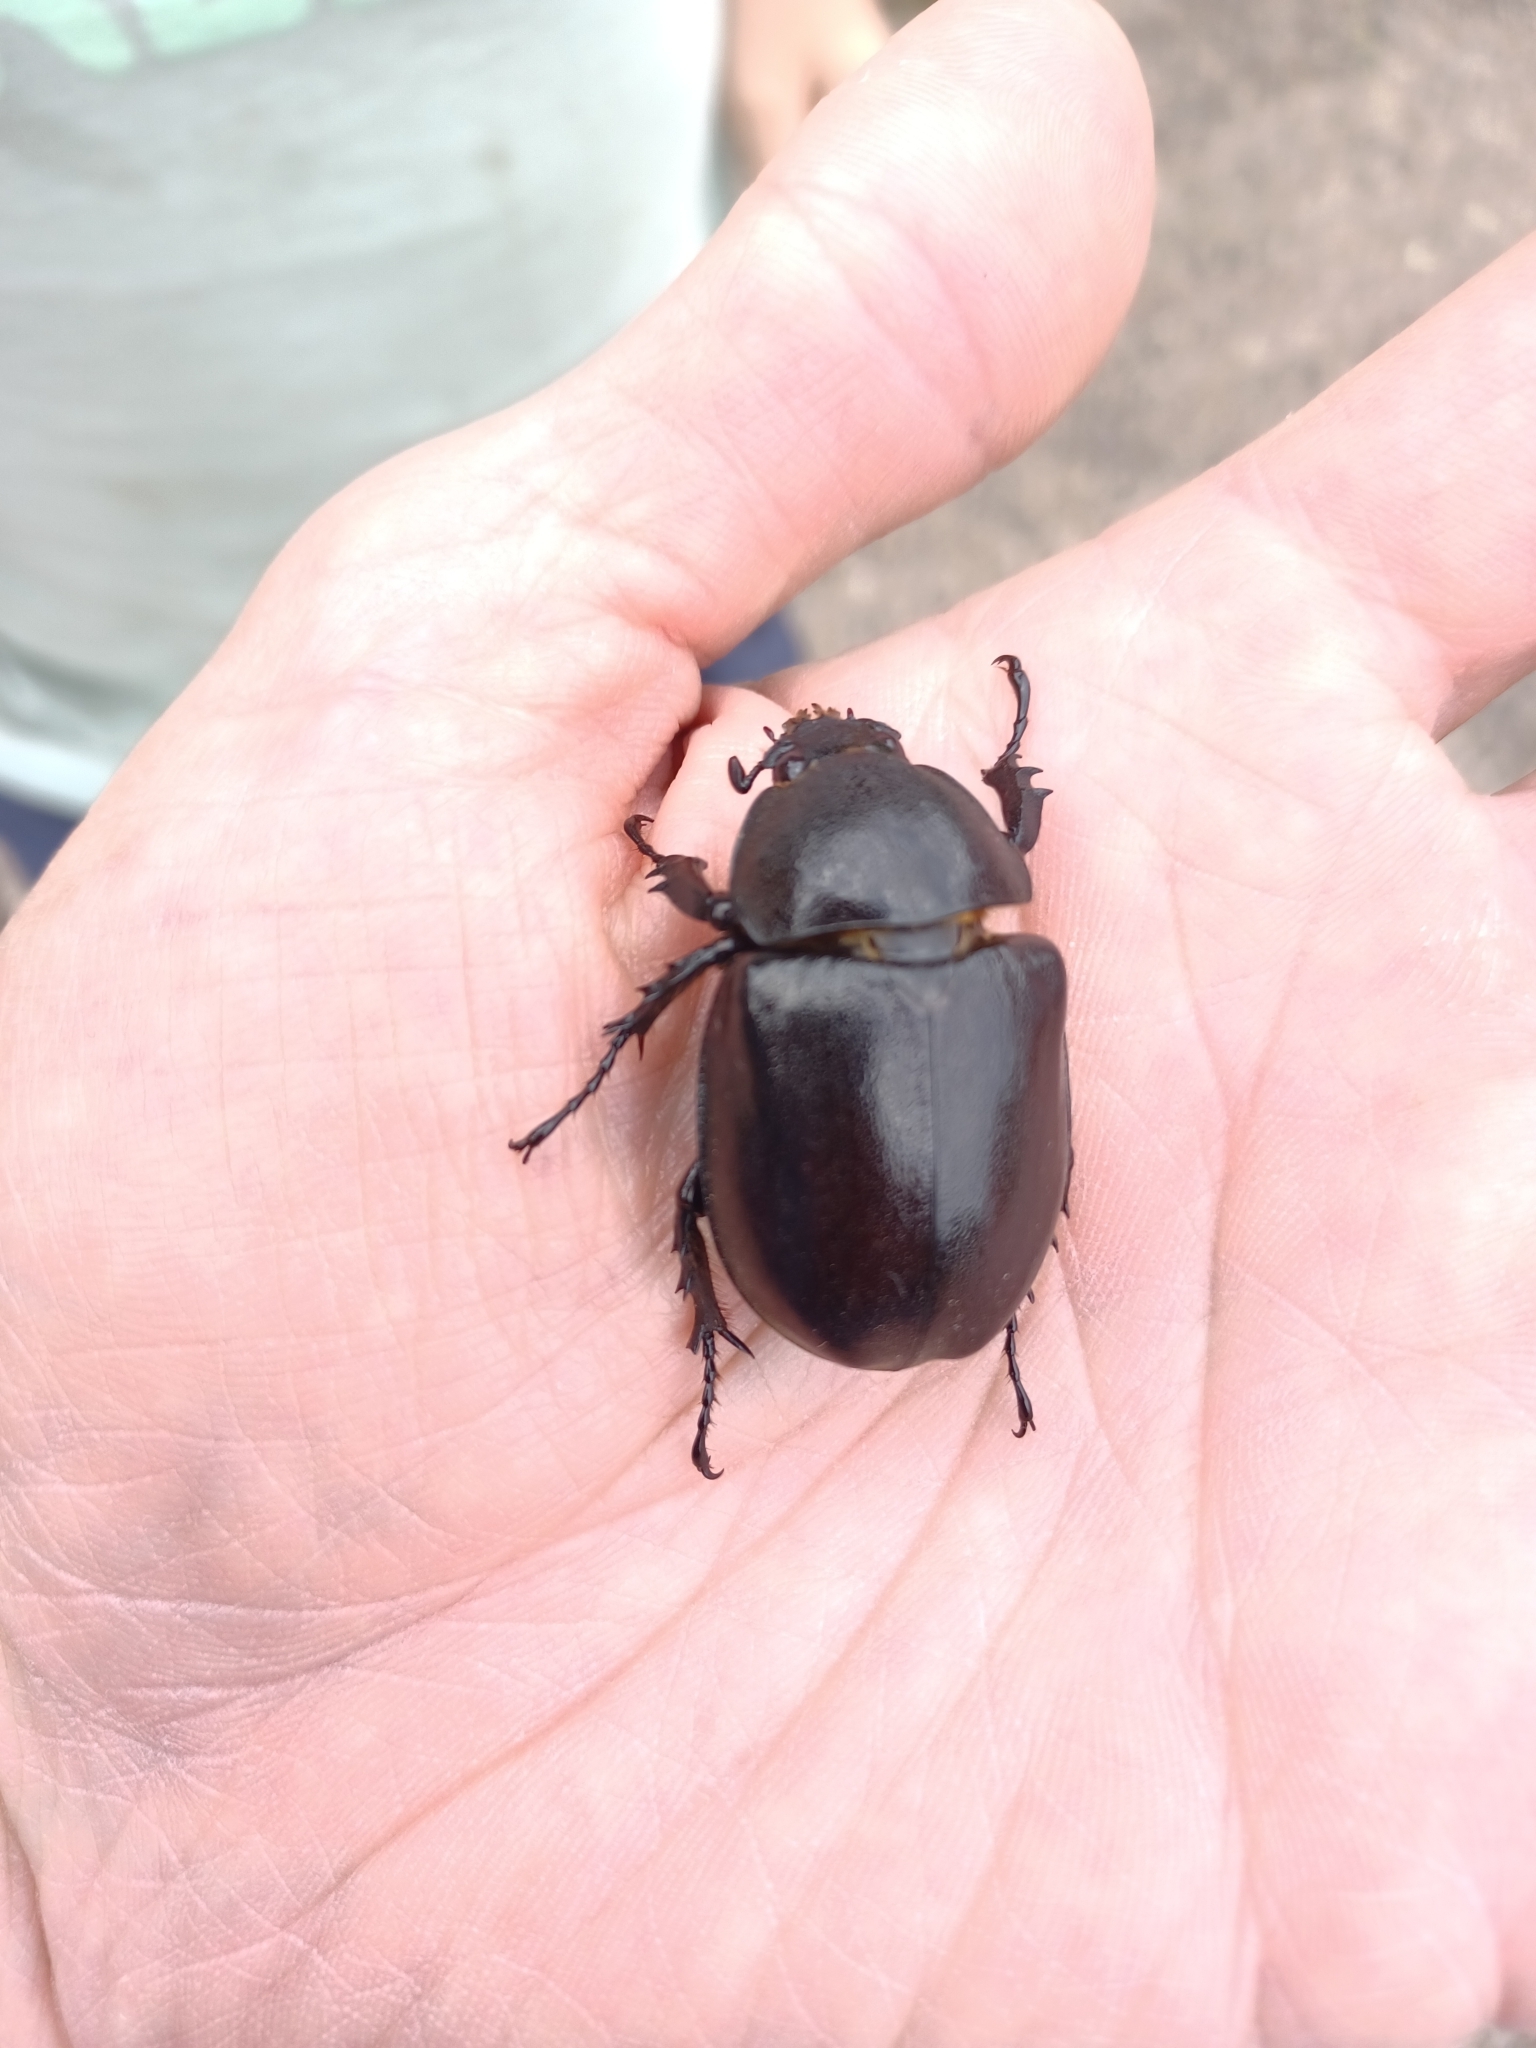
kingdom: Animalia
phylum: Arthropoda
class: Insecta
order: Coleoptera
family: Scarabaeidae
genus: Xylotrupes
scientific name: Xylotrupes australicus
